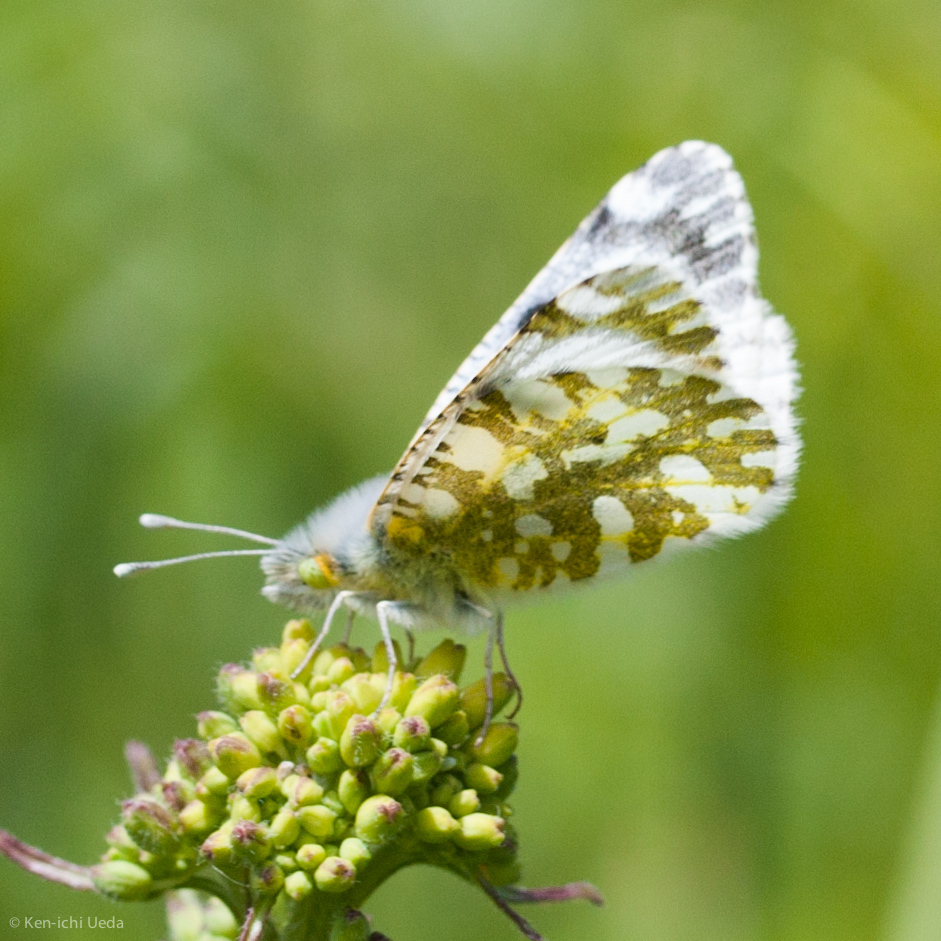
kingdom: Animalia
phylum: Arthropoda
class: Insecta
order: Lepidoptera
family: Pieridae
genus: Euchloe
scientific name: Euchloe ausonides
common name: Creamy marblewing
